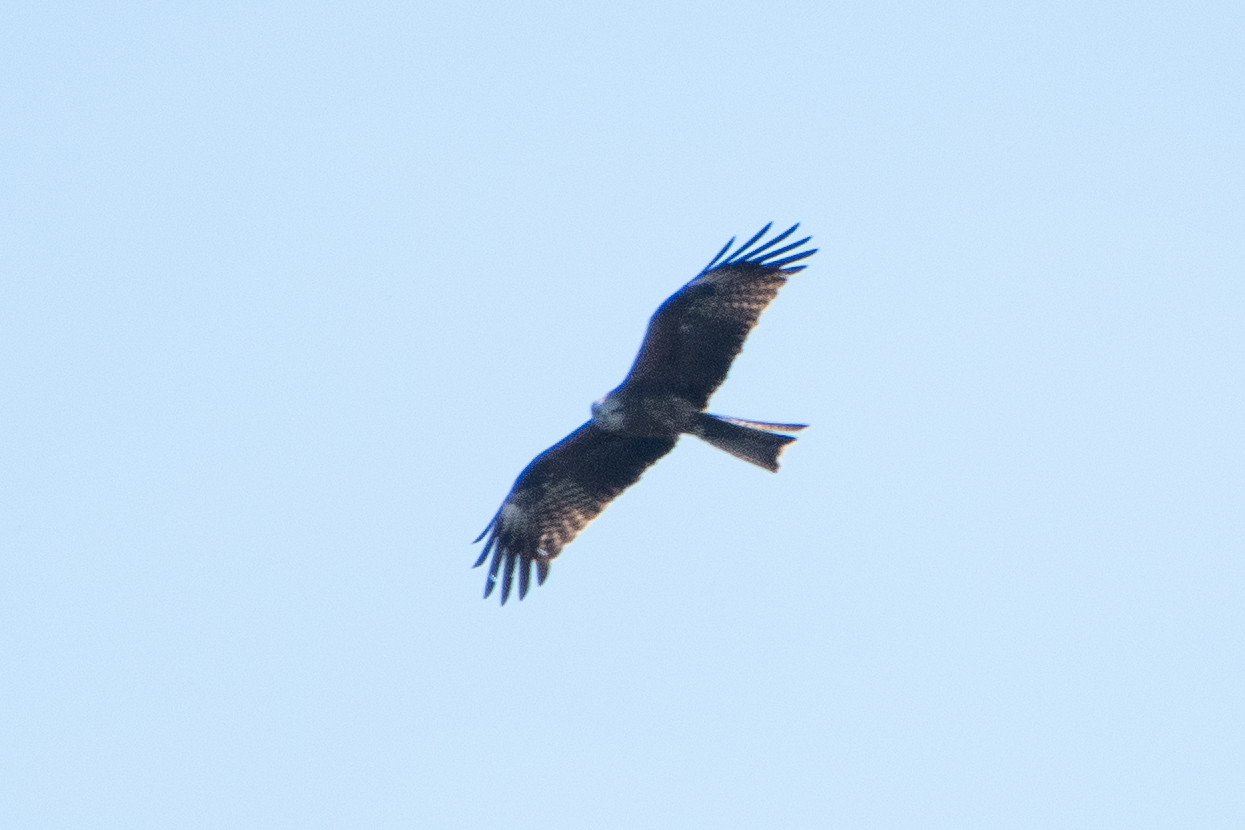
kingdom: Animalia
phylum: Chordata
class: Aves
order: Accipitriformes
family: Accipitridae
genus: Milvus
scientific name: Milvus migrans
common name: Black kite
